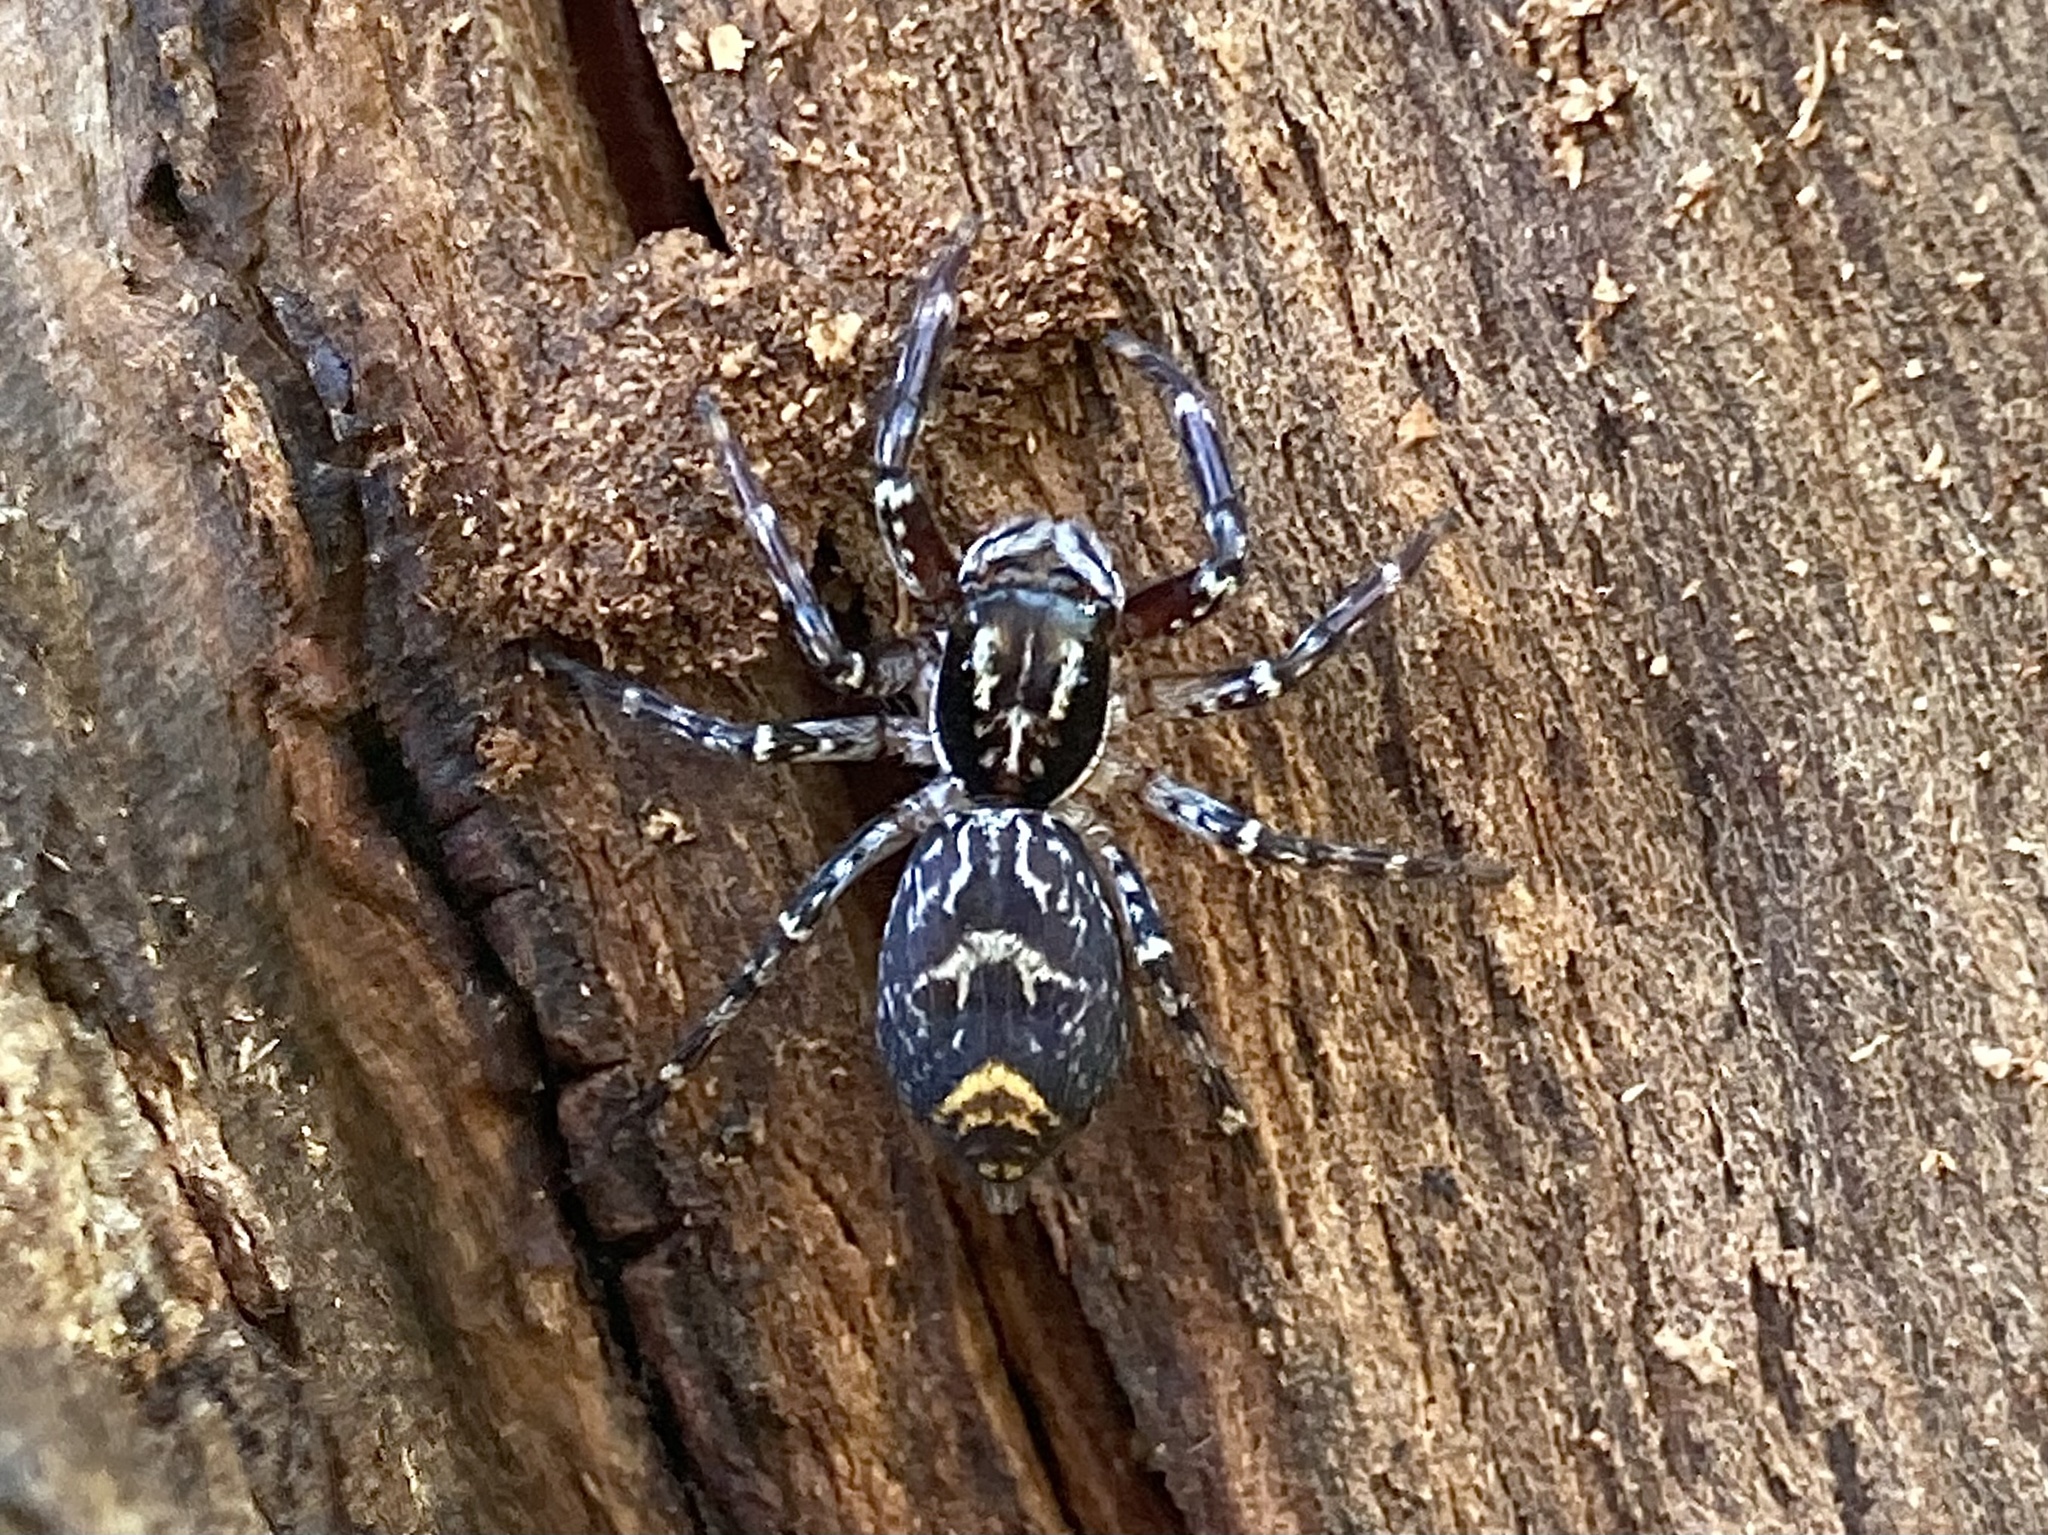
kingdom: Animalia
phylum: Arthropoda
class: Arachnida
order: Araneae
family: Salticidae
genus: Astia
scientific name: Astia
